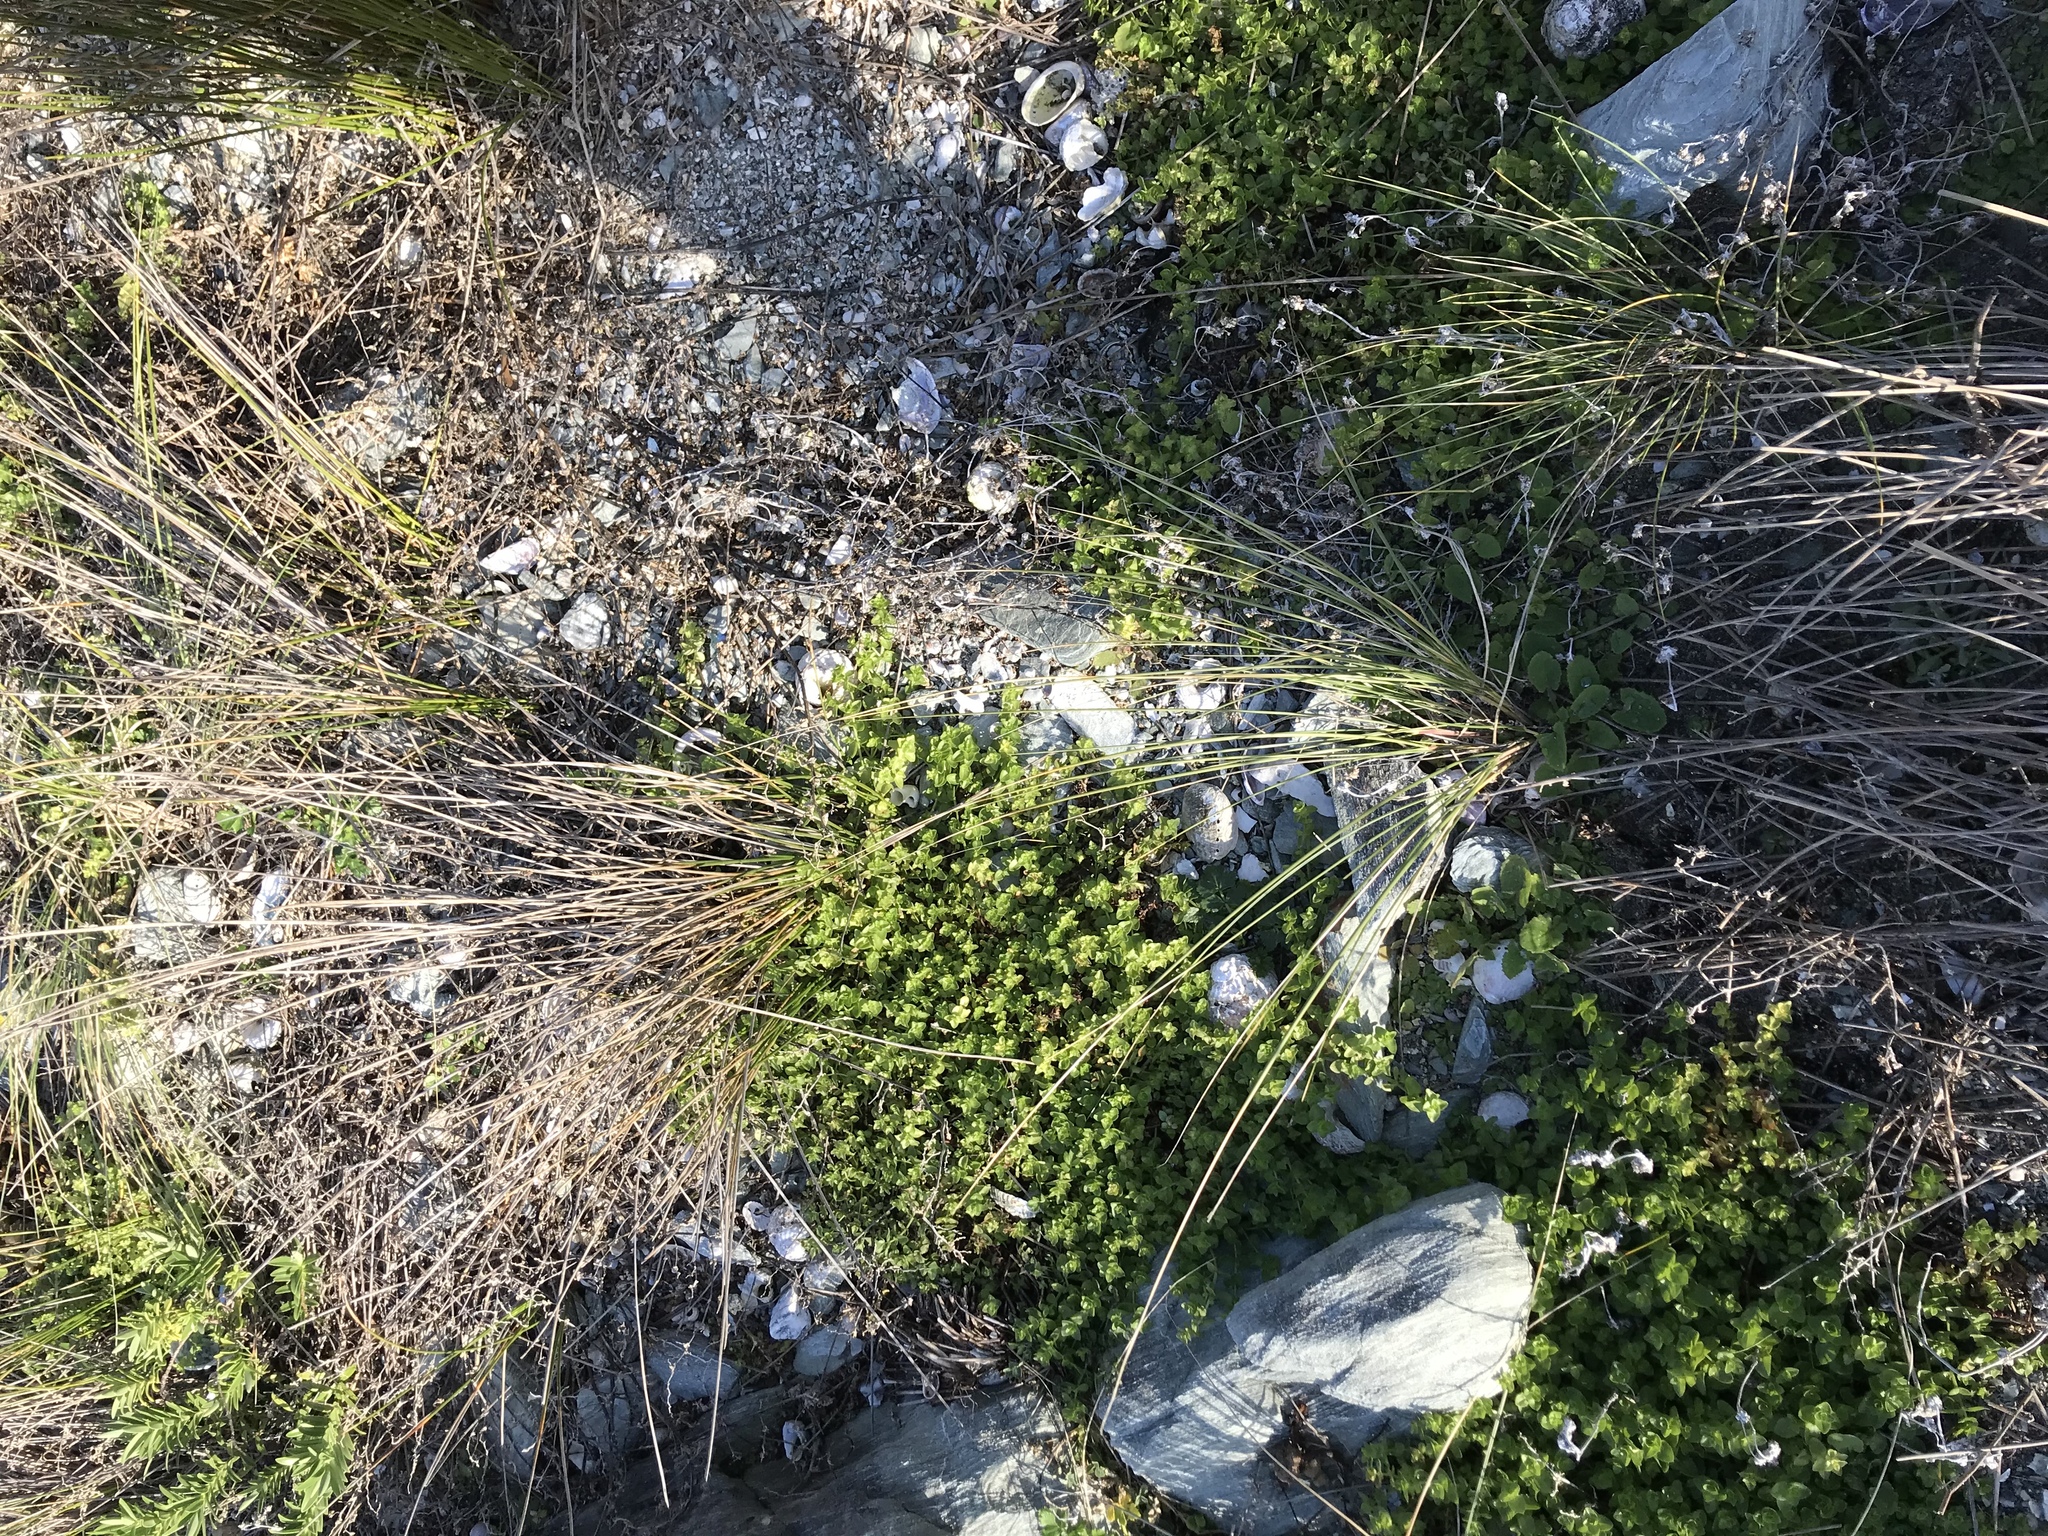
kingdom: Plantae
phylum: Tracheophyta
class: Liliopsida
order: Poales
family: Poaceae
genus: Calamagrostis
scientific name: Calamagrostis arenaria
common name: European beachgrass
